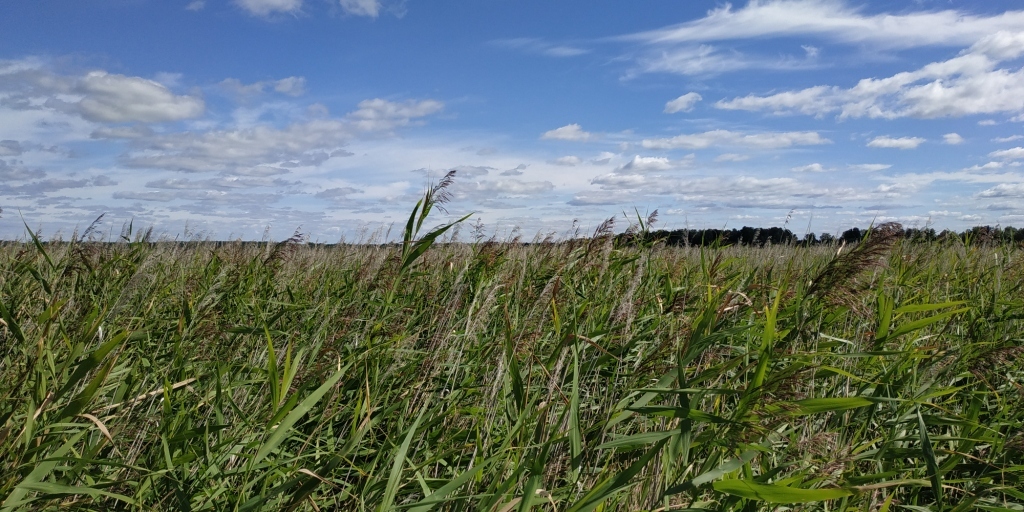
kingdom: Plantae
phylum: Tracheophyta
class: Liliopsida
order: Poales
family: Poaceae
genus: Phragmites
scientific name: Phragmites australis
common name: Common reed
